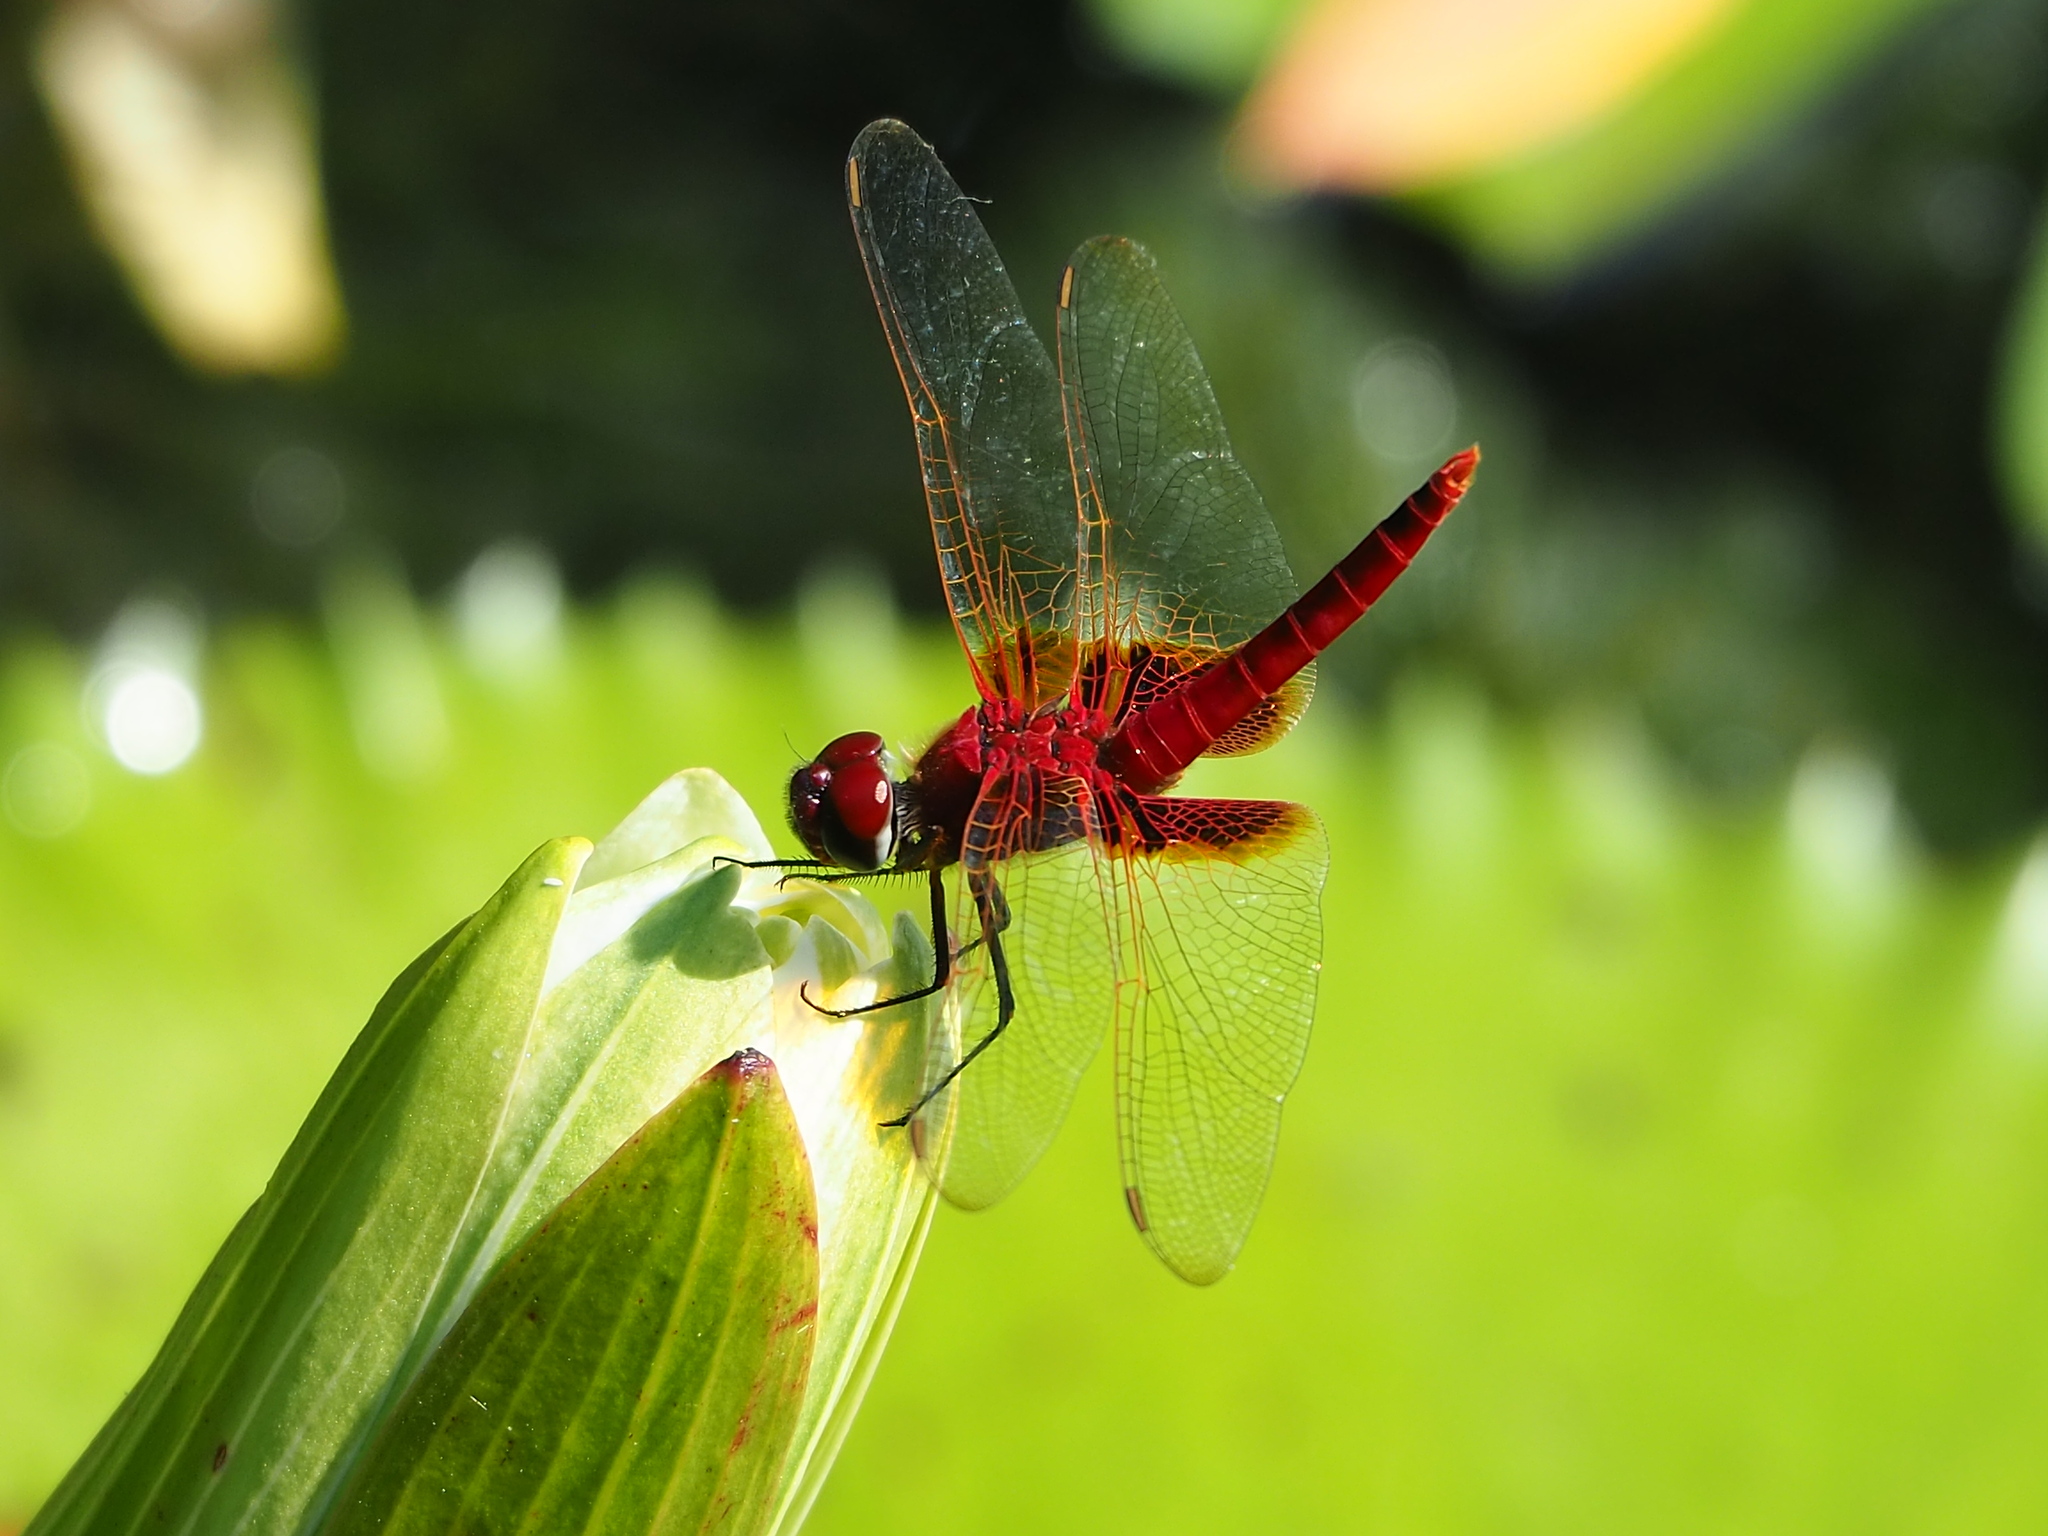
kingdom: Animalia
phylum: Arthropoda
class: Insecta
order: Odonata
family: Libellulidae
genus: Urothemis
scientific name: Urothemis signata
